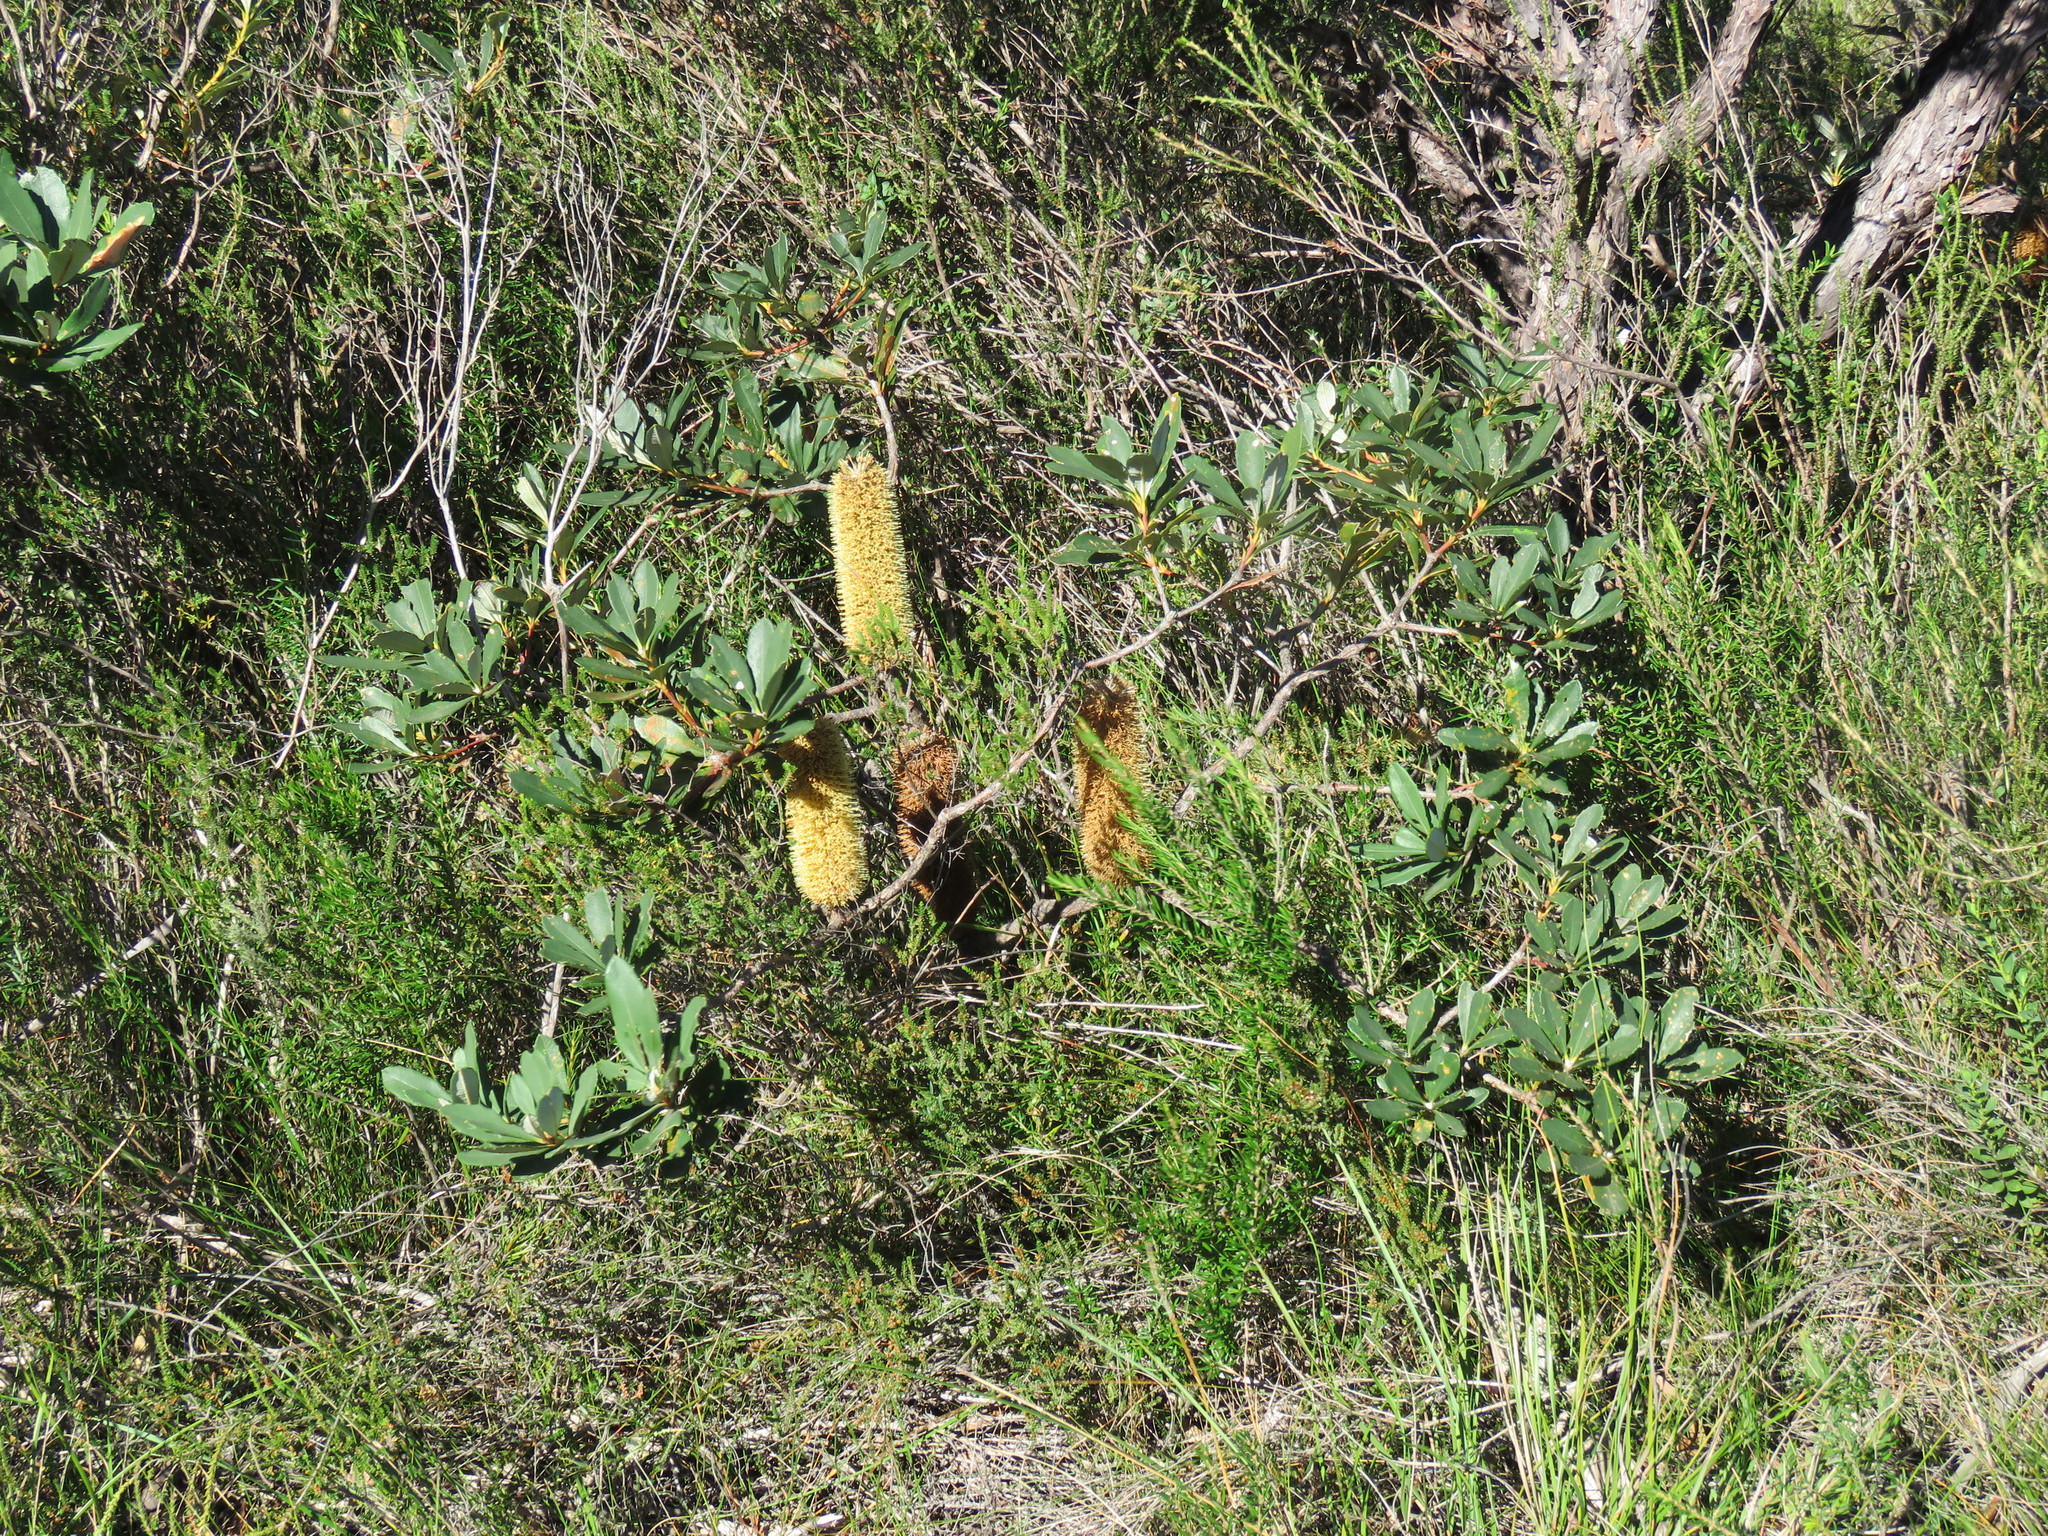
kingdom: Plantae
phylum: Tracheophyta
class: Magnoliopsida
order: Proteales
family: Proteaceae
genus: Banksia
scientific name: Banksia paludosa
